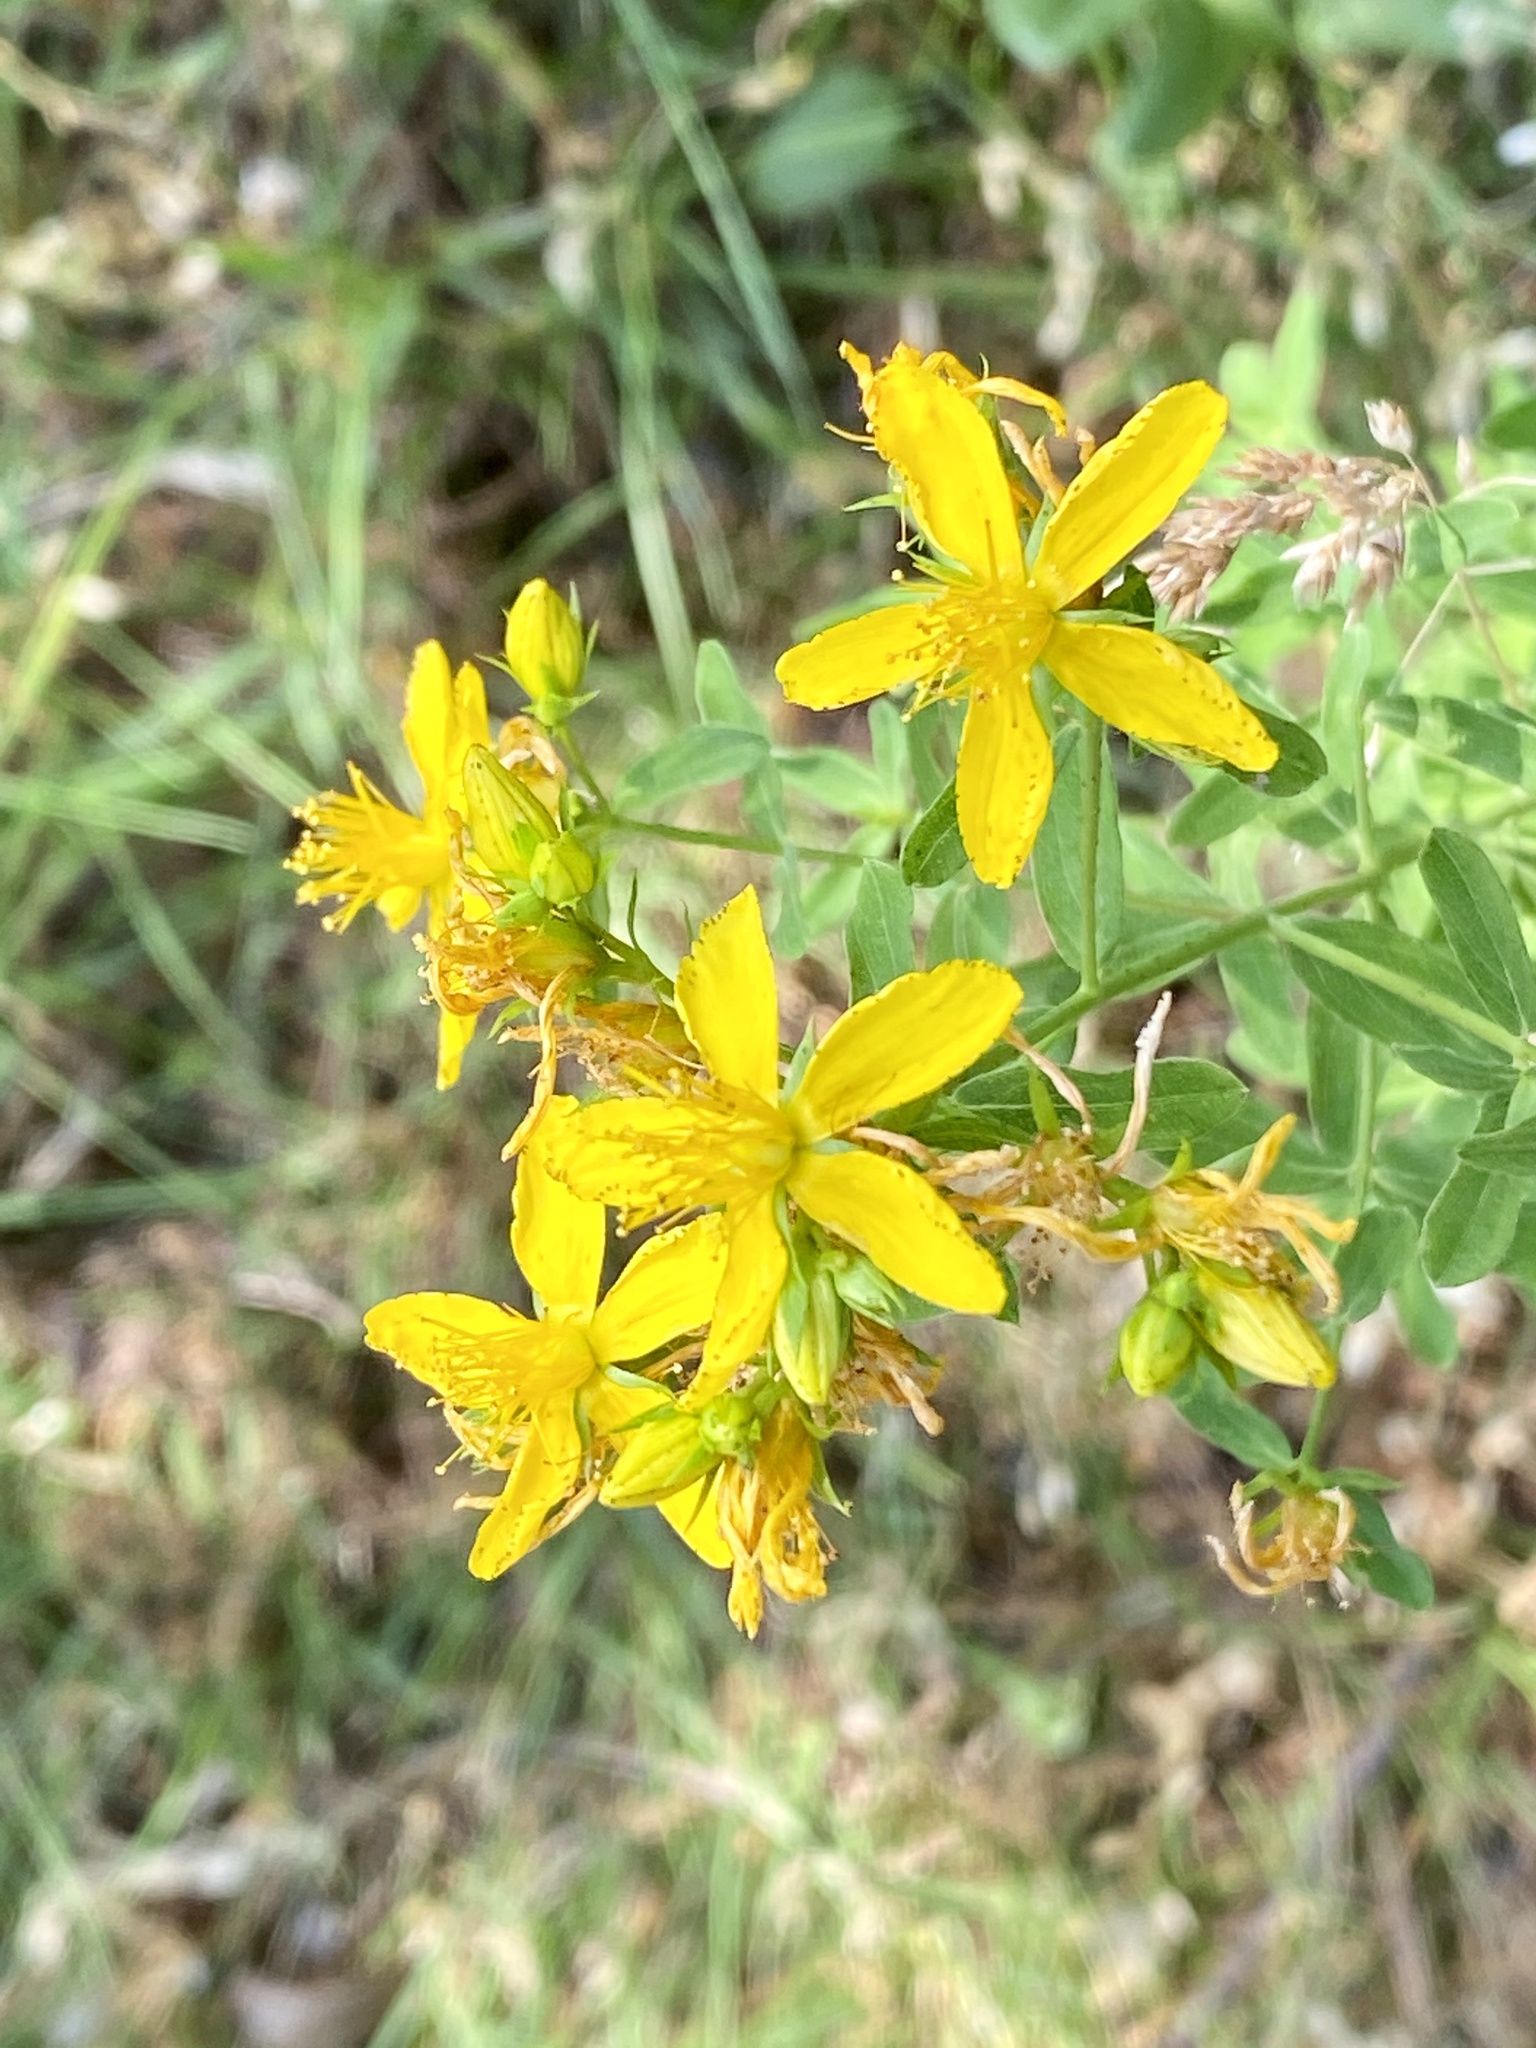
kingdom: Plantae
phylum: Tracheophyta
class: Magnoliopsida
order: Malpighiales
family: Hypericaceae
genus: Hypericum
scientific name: Hypericum perforatum
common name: Common st. johnswort
